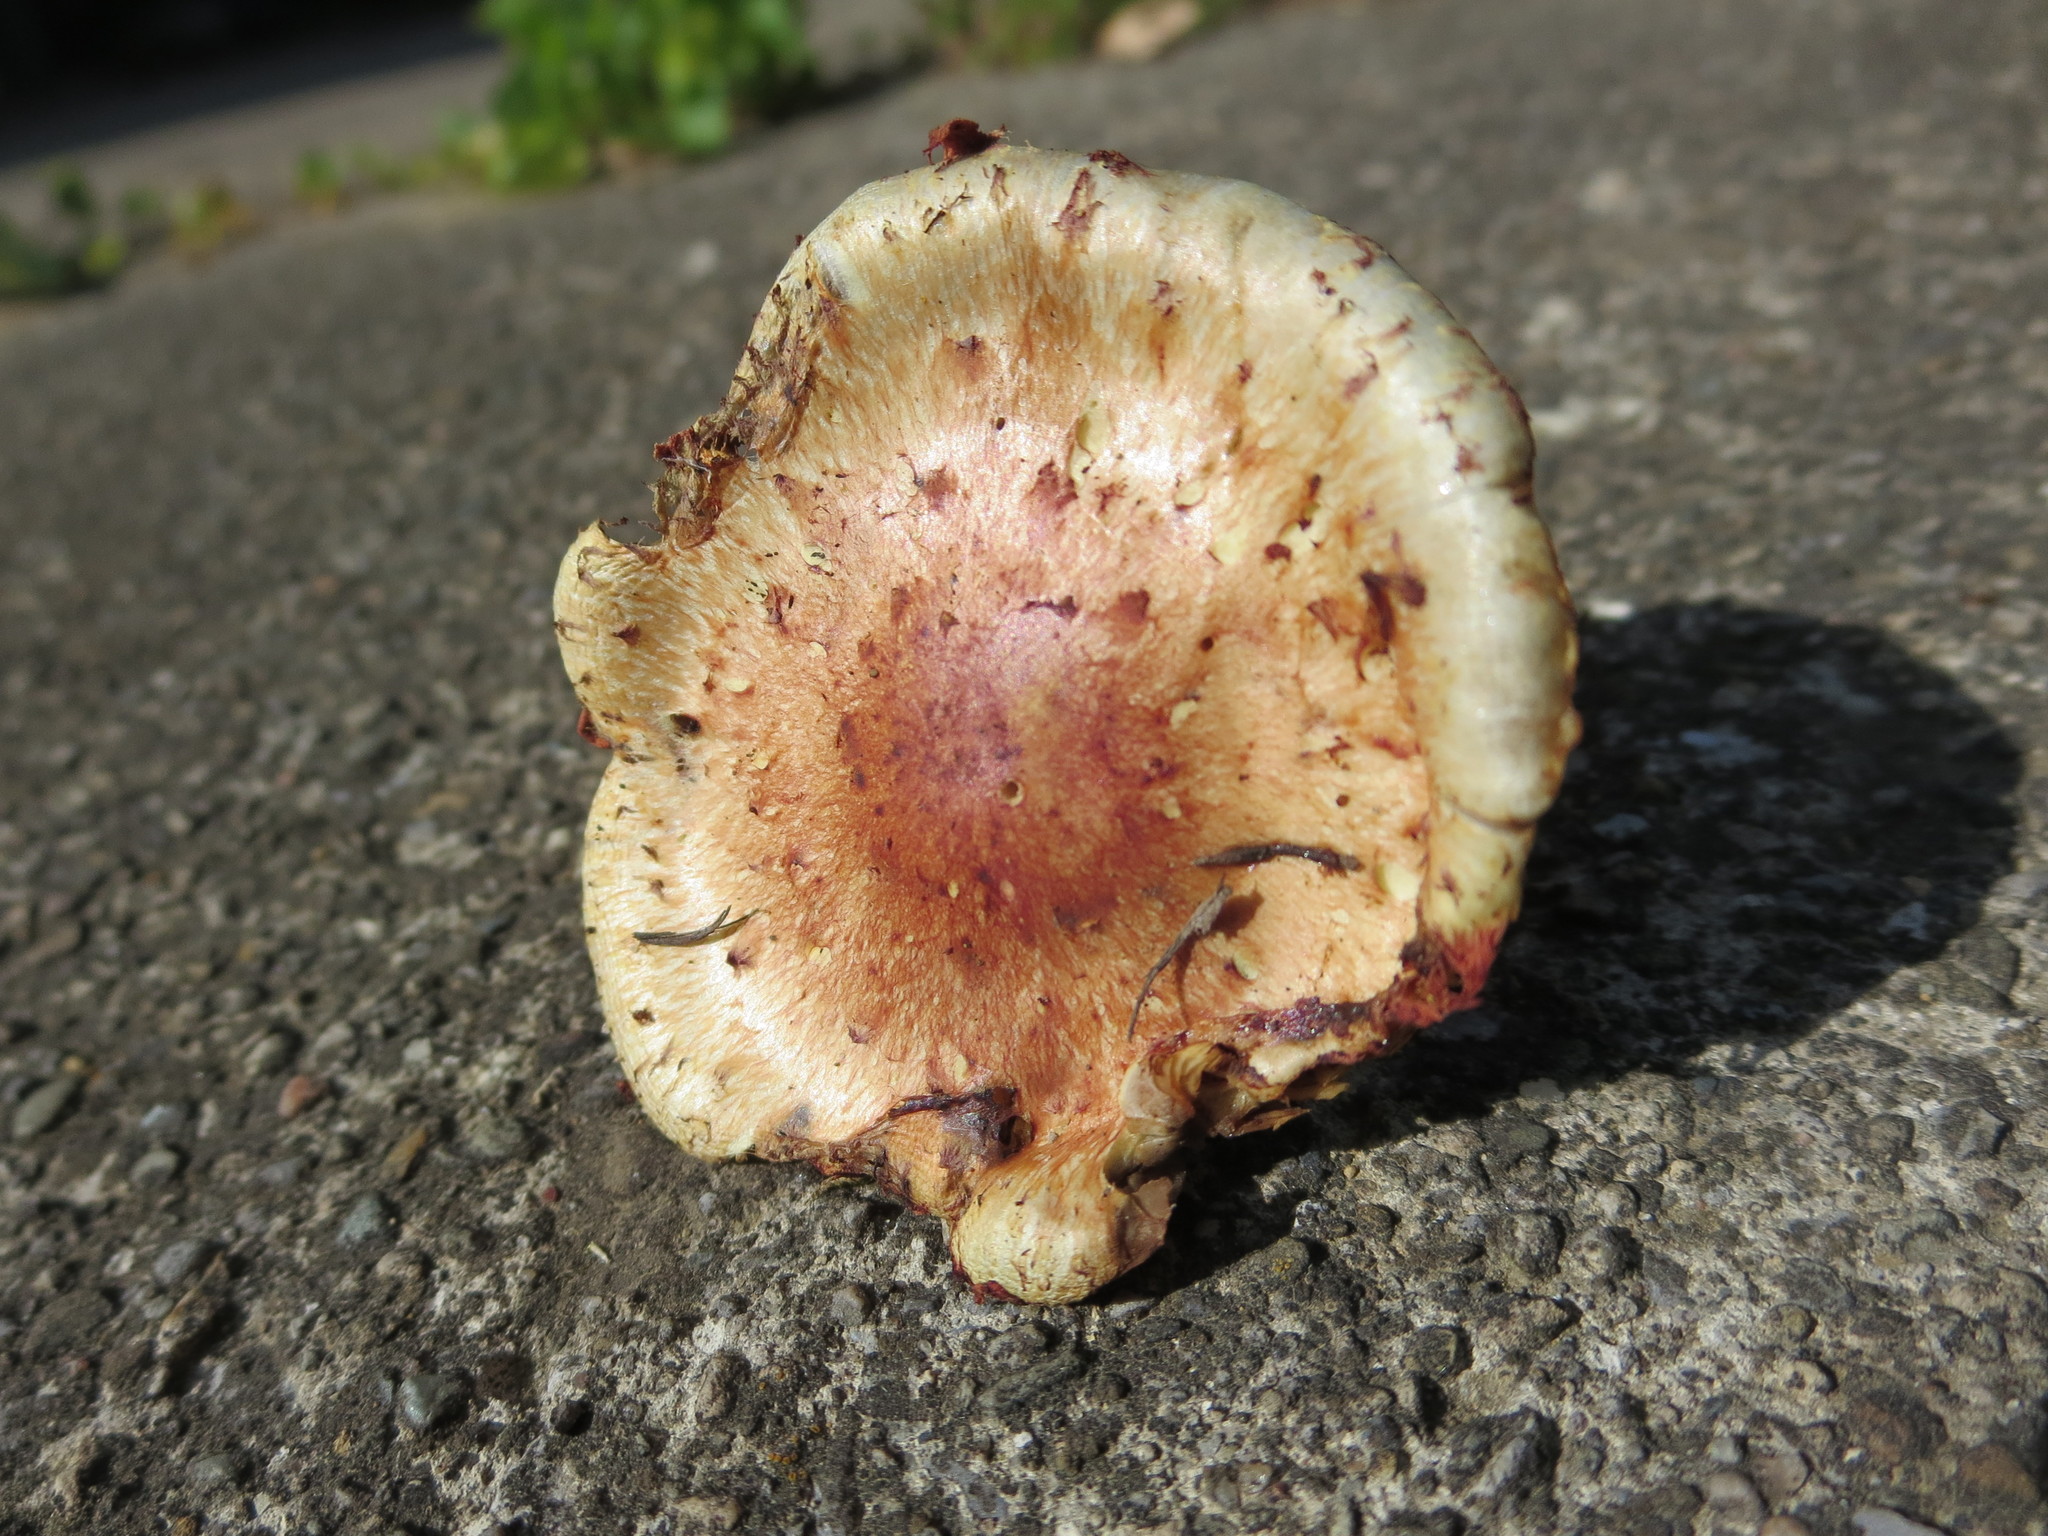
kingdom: Fungi
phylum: Basidiomycota
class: Agaricomycetes
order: Agaricales
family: Strophariaceae
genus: Pholiota
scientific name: Pholiota polychroa
